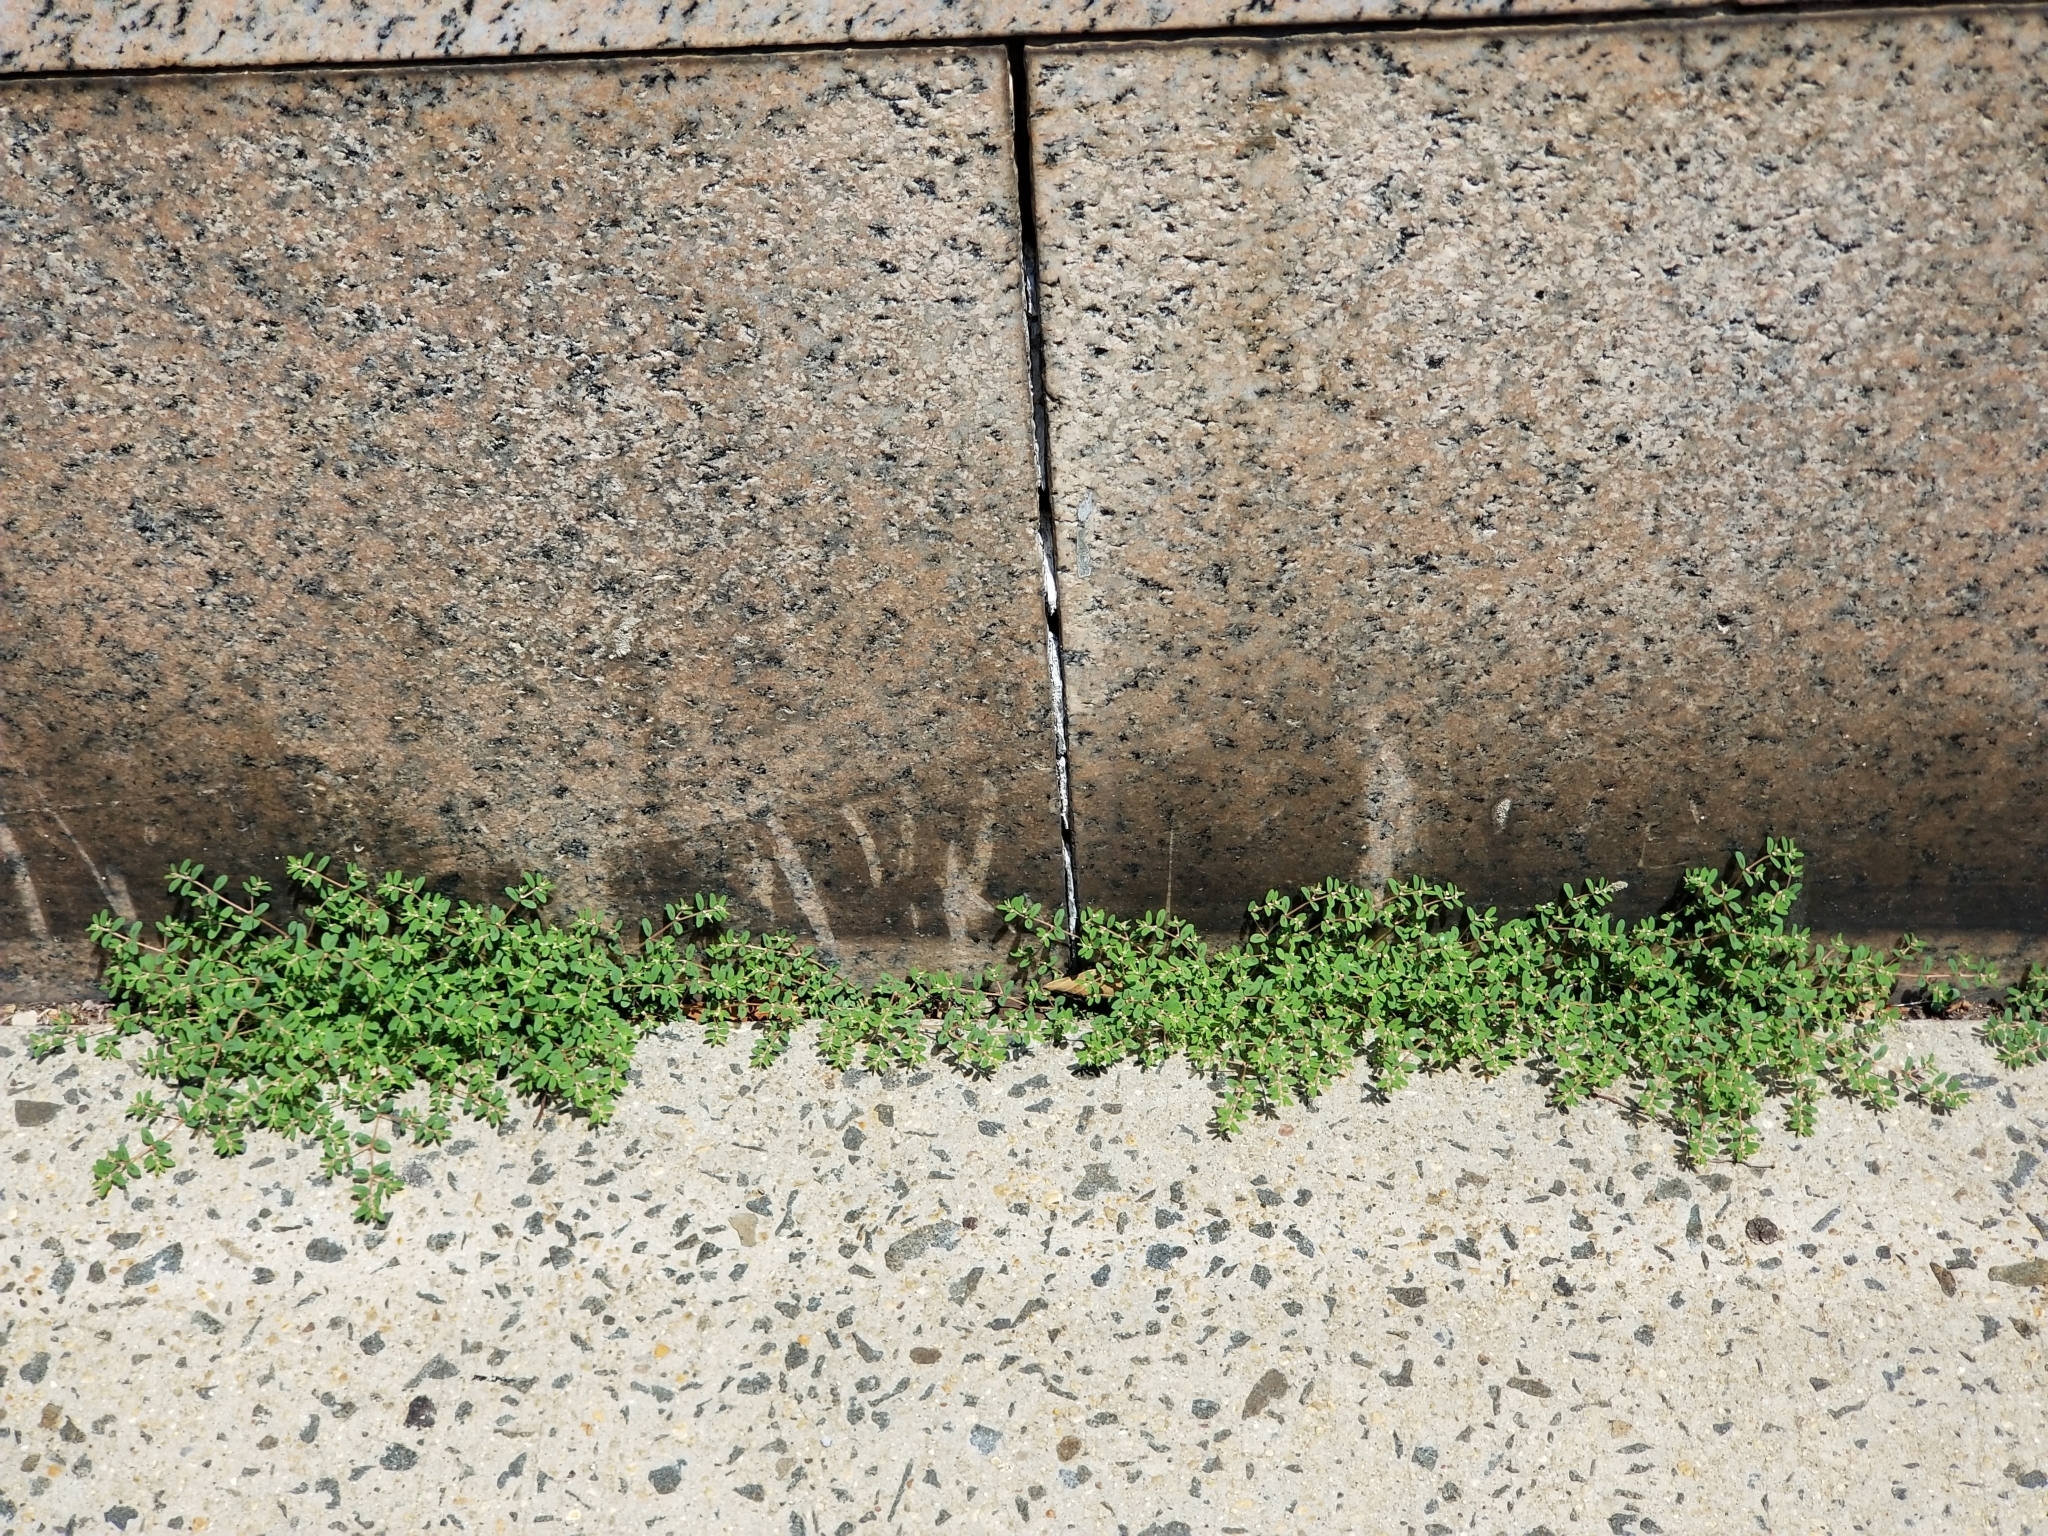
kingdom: Plantae
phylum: Tracheophyta
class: Magnoliopsida
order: Malpighiales
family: Euphorbiaceae
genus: Euphorbia
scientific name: Euphorbia maculata
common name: Spotted spurge
